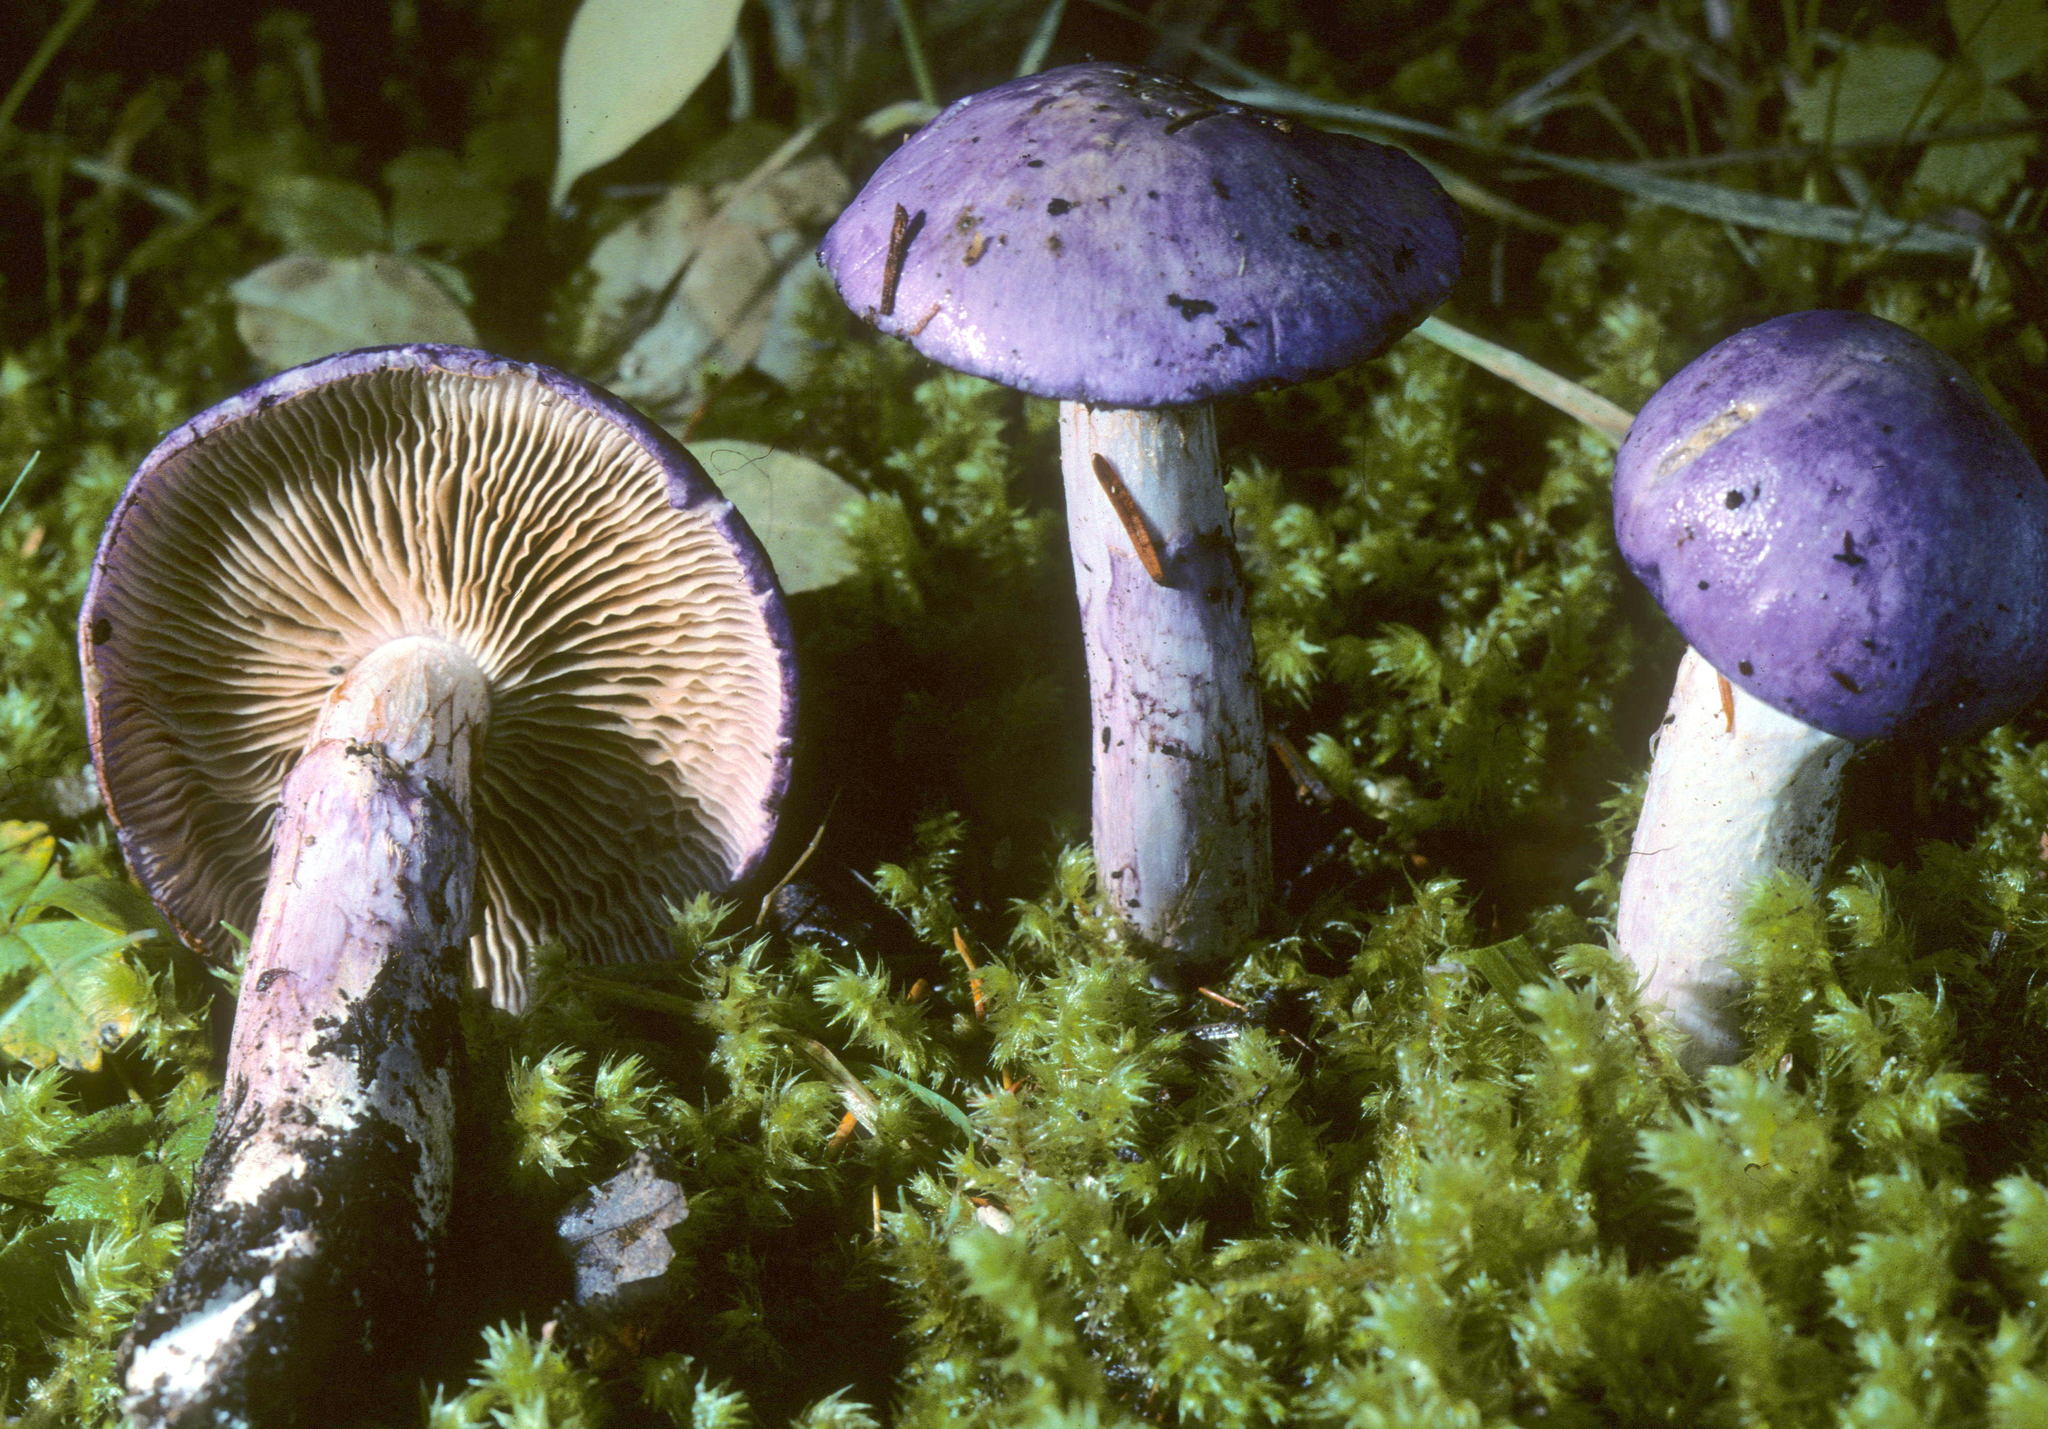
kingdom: Fungi
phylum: Basidiomycota
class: Agaricomycetes
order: Agaricales
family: Cortinariaceae
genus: Phlegmacium
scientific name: Phlegmacium subfoetidum
